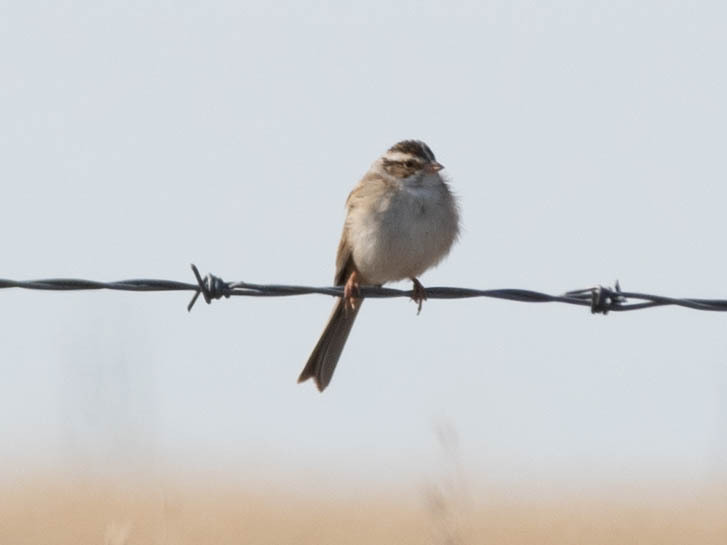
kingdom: Animalia
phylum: Chordata
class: Aves
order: Passeriformes
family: Passerellidae
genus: Spizella
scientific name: Spizella pallida
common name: Clay-colored sparrow
